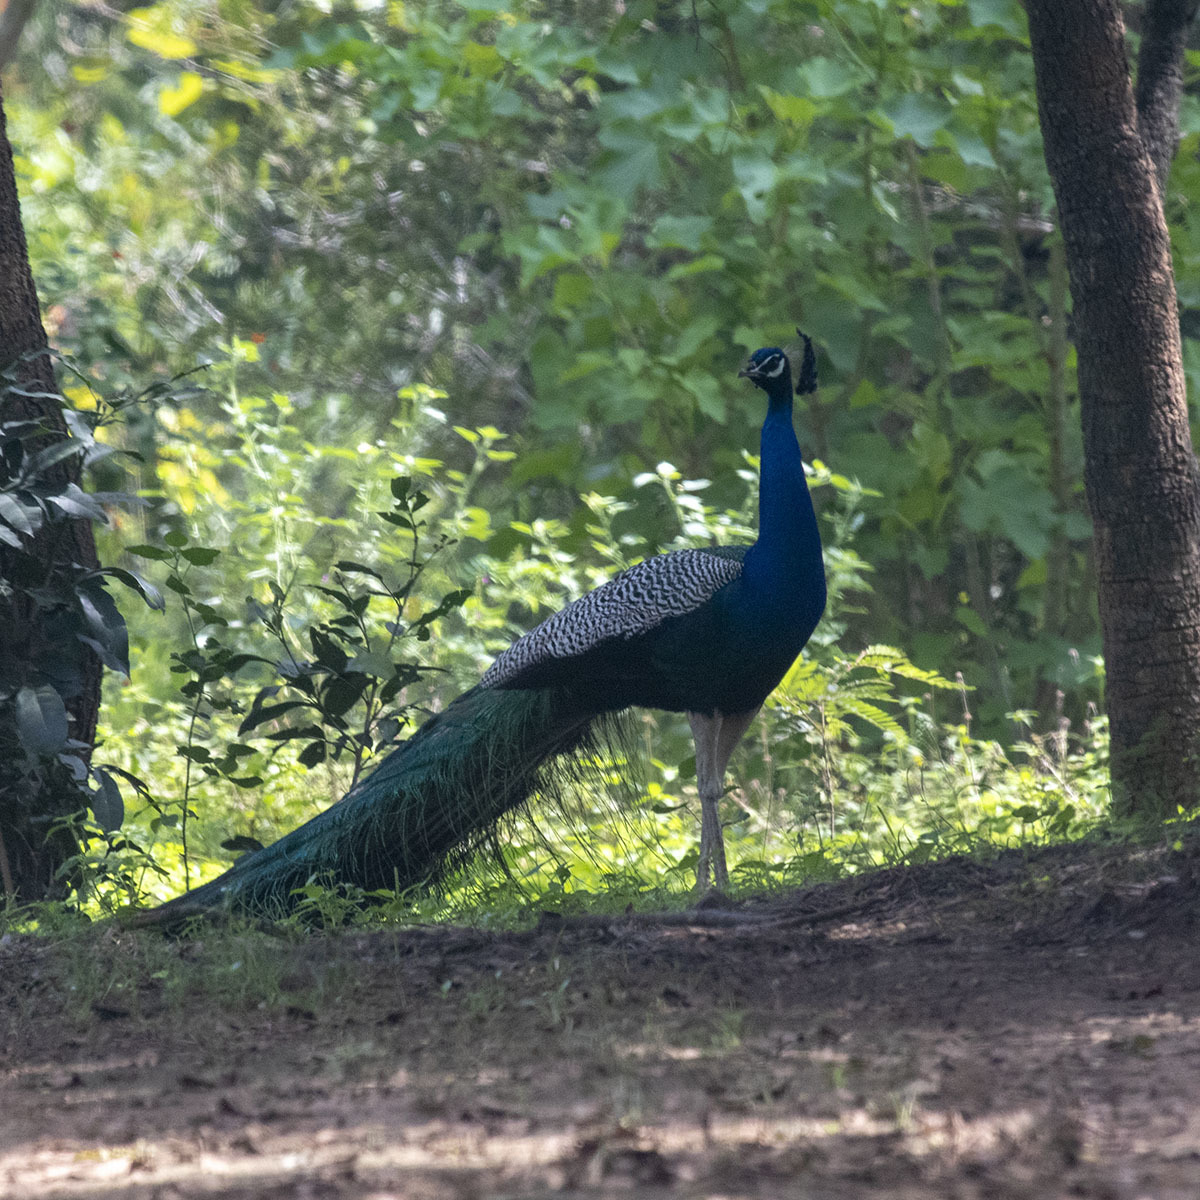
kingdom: Animalia
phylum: Chordata
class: Aves
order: Galliformes
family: Phasianidae
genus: Pavo
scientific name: Pavo cristatus
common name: Indian peafowl
